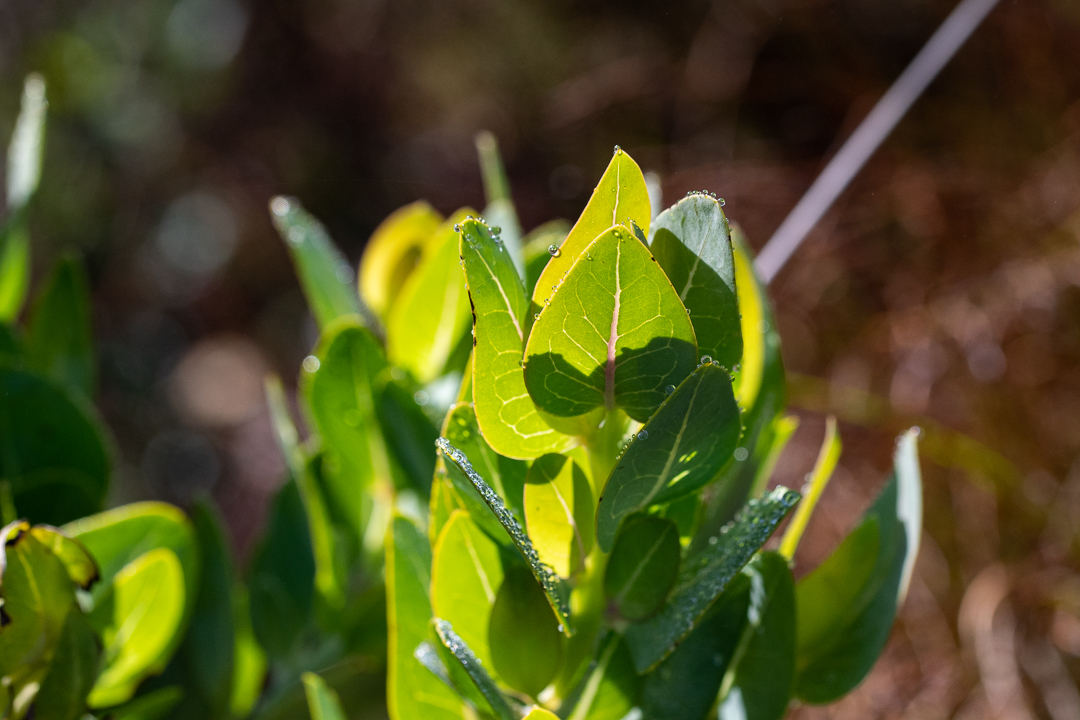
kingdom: Plantae
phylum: Tracheophyta
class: Magnoliopsida
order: Fabales
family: Fabaceae
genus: Rafnia
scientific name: Rafnia triflora
